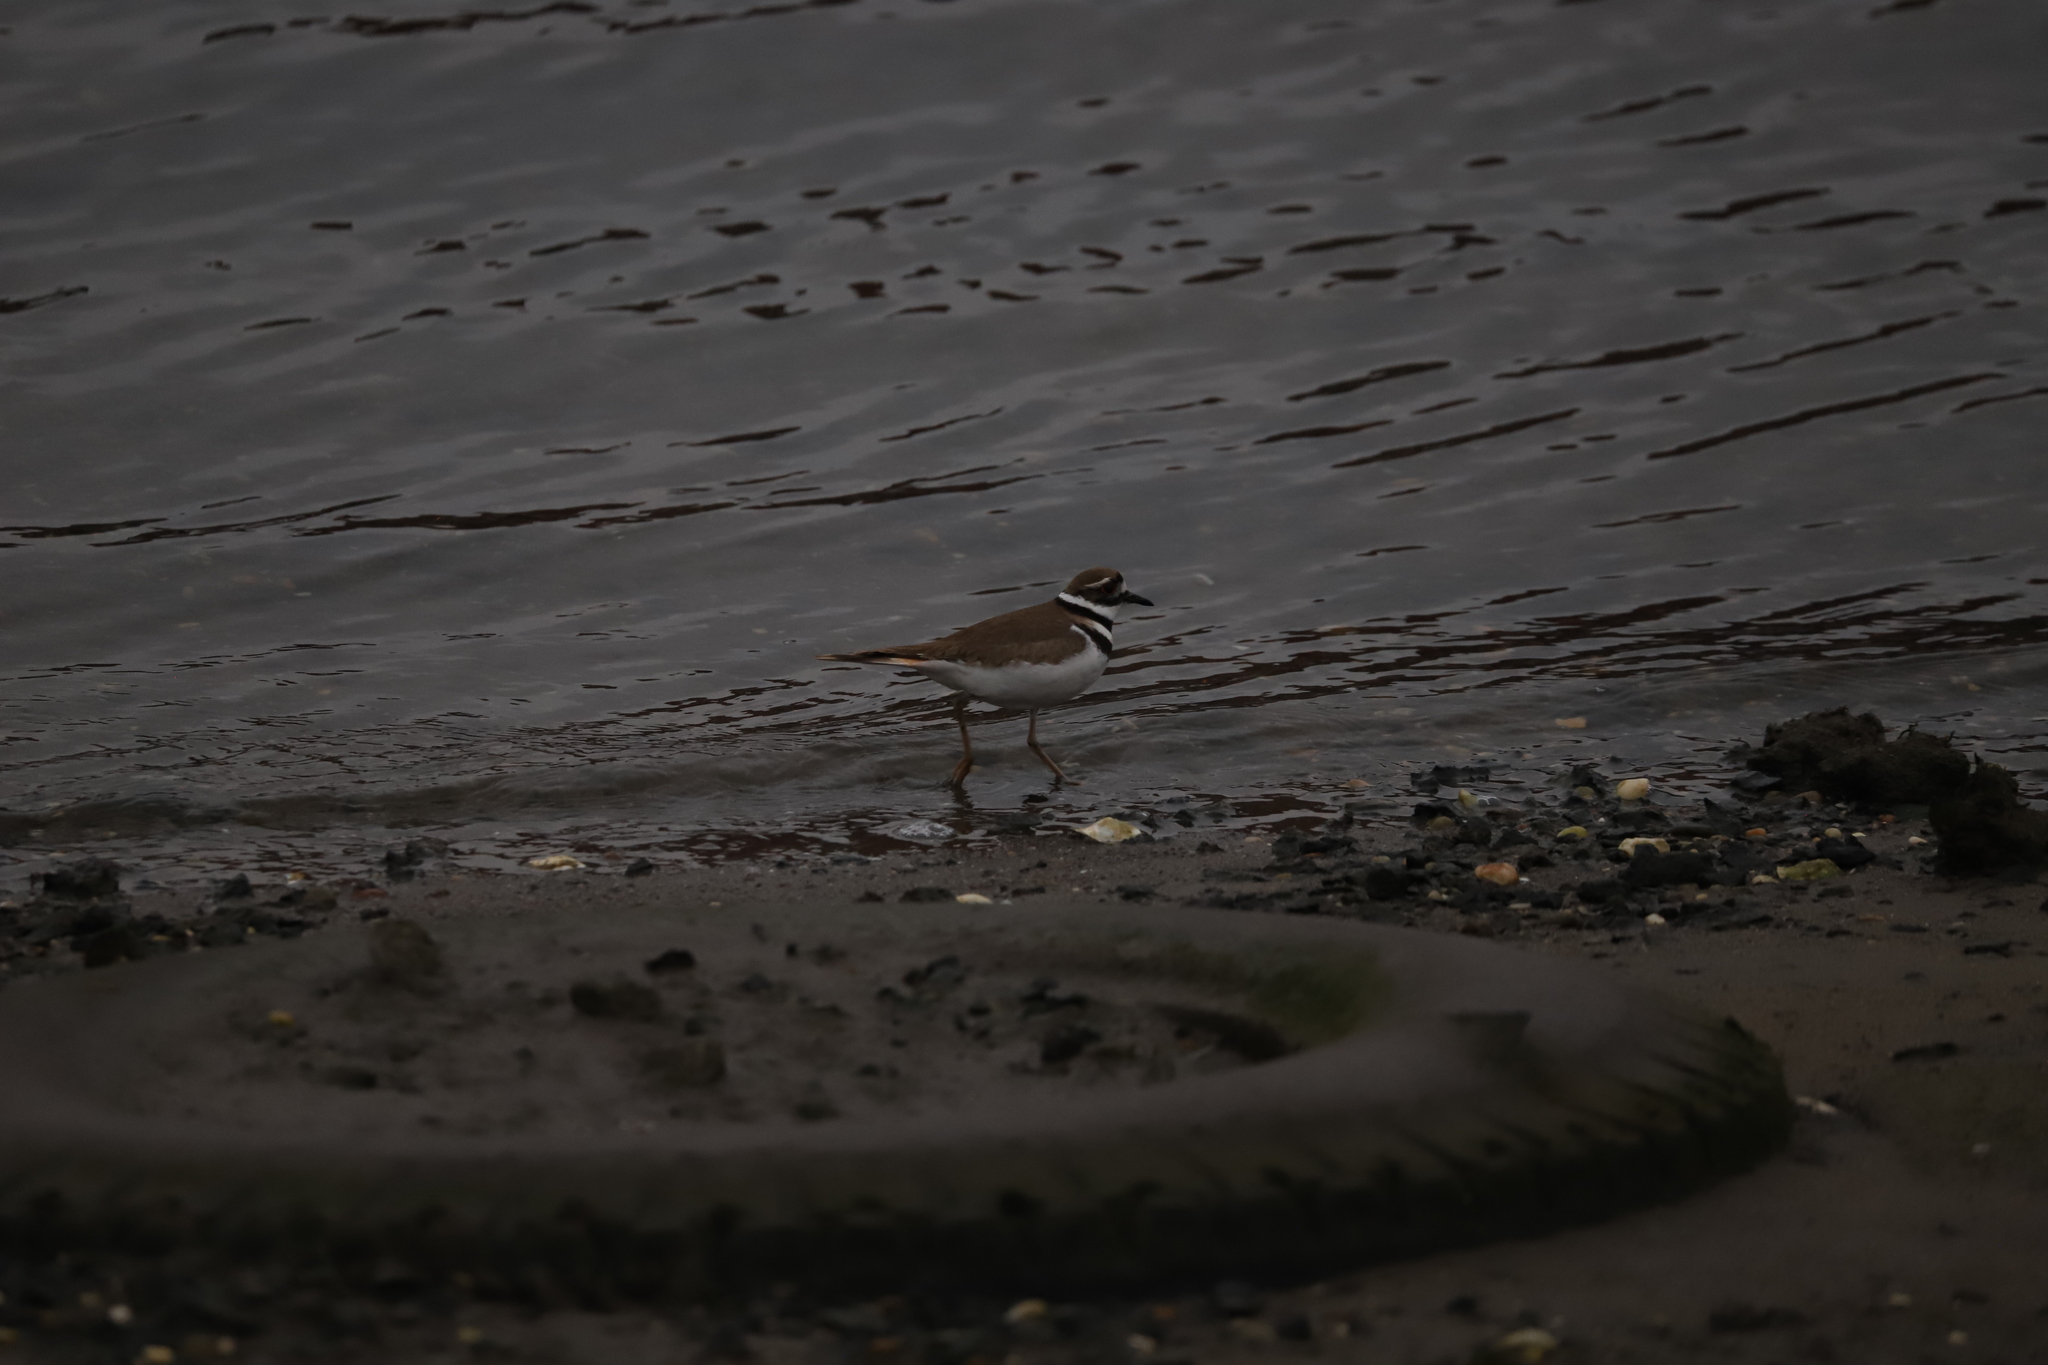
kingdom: Animalia
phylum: Chordata
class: Aves
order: Charadriiformes
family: Charadriidae
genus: Charadrius
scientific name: Charadrius vociferus
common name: Killdeer
